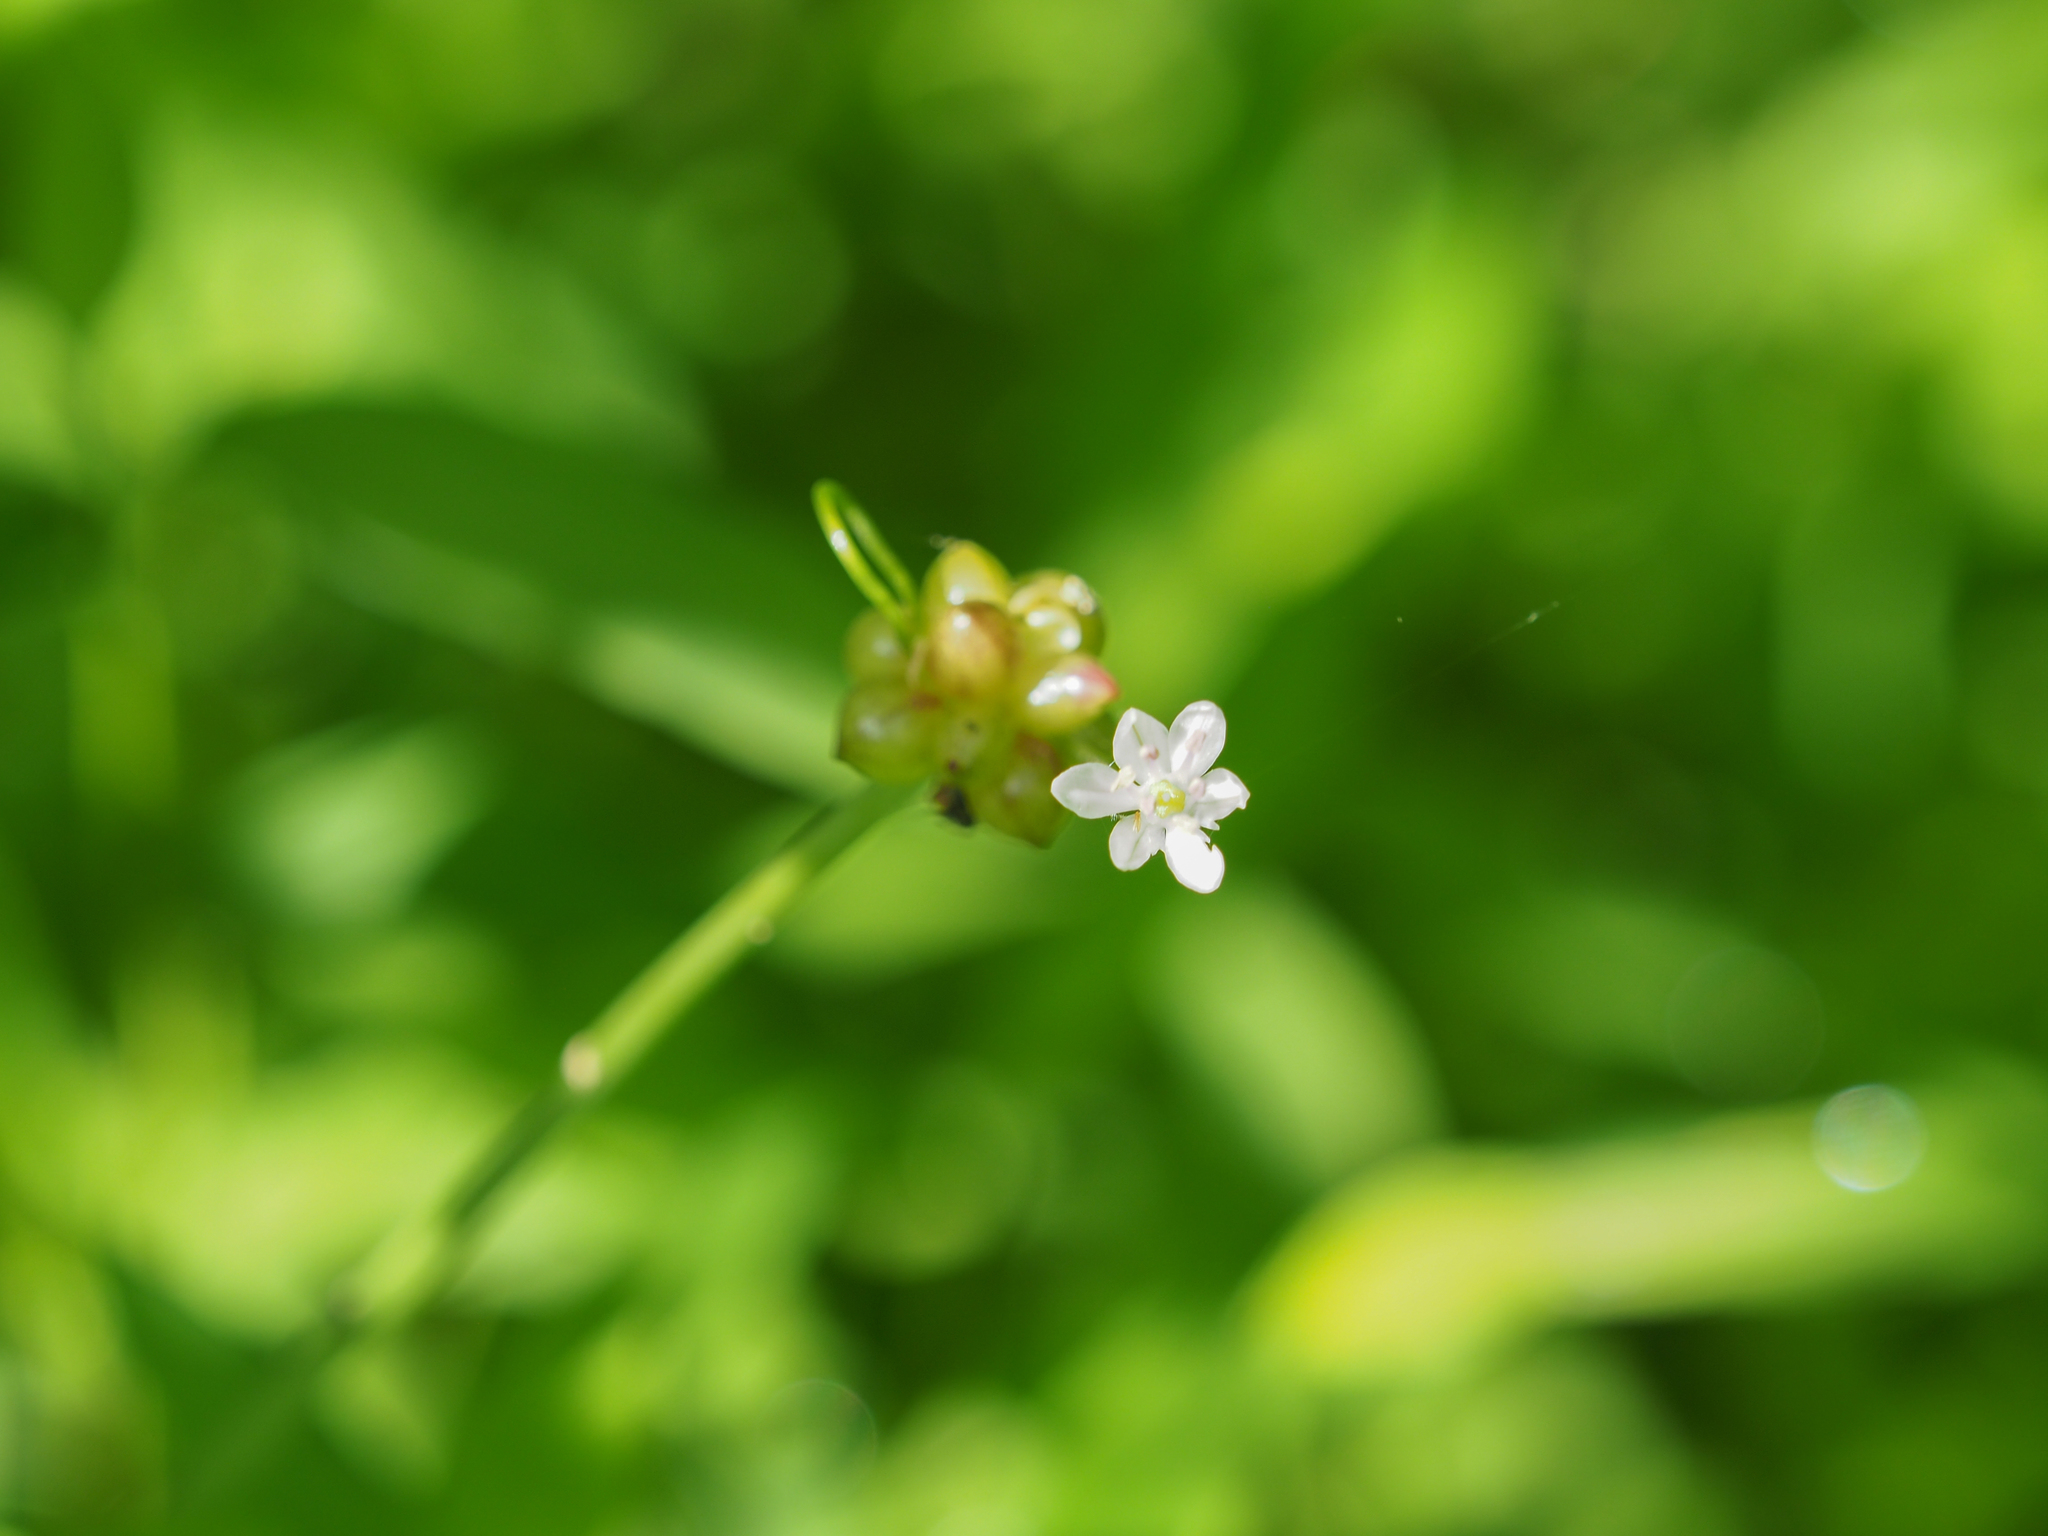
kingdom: Plantae
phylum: Tracheophyta
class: Liliopsida
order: Asparagales
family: Amaryllidaceae
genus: Allium
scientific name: Allium canadense
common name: Meadow garlic
